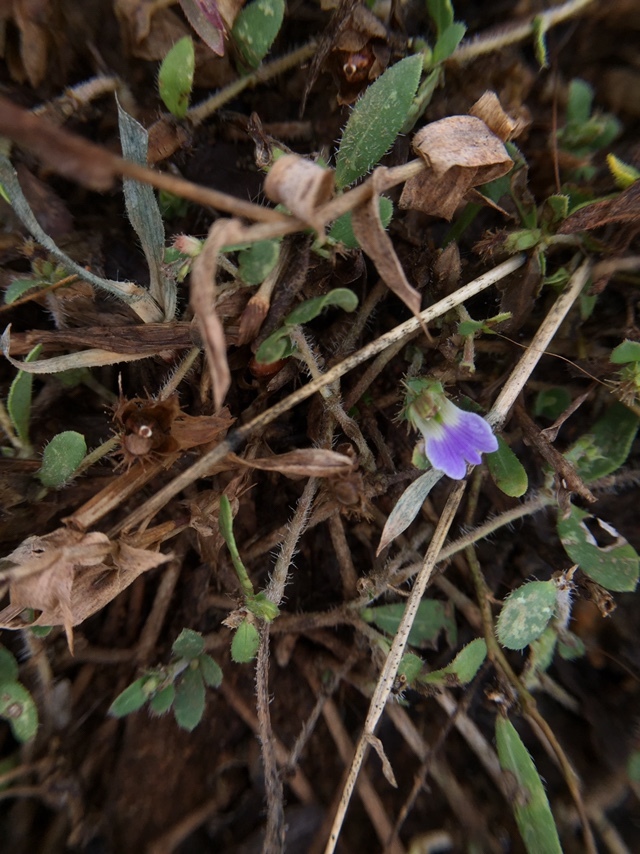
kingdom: Plantae
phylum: Tracheophyta
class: Magnoliopsida
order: Lamiales
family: Acanthaceae
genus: Blepharis
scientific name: Blepharis integrifolia
